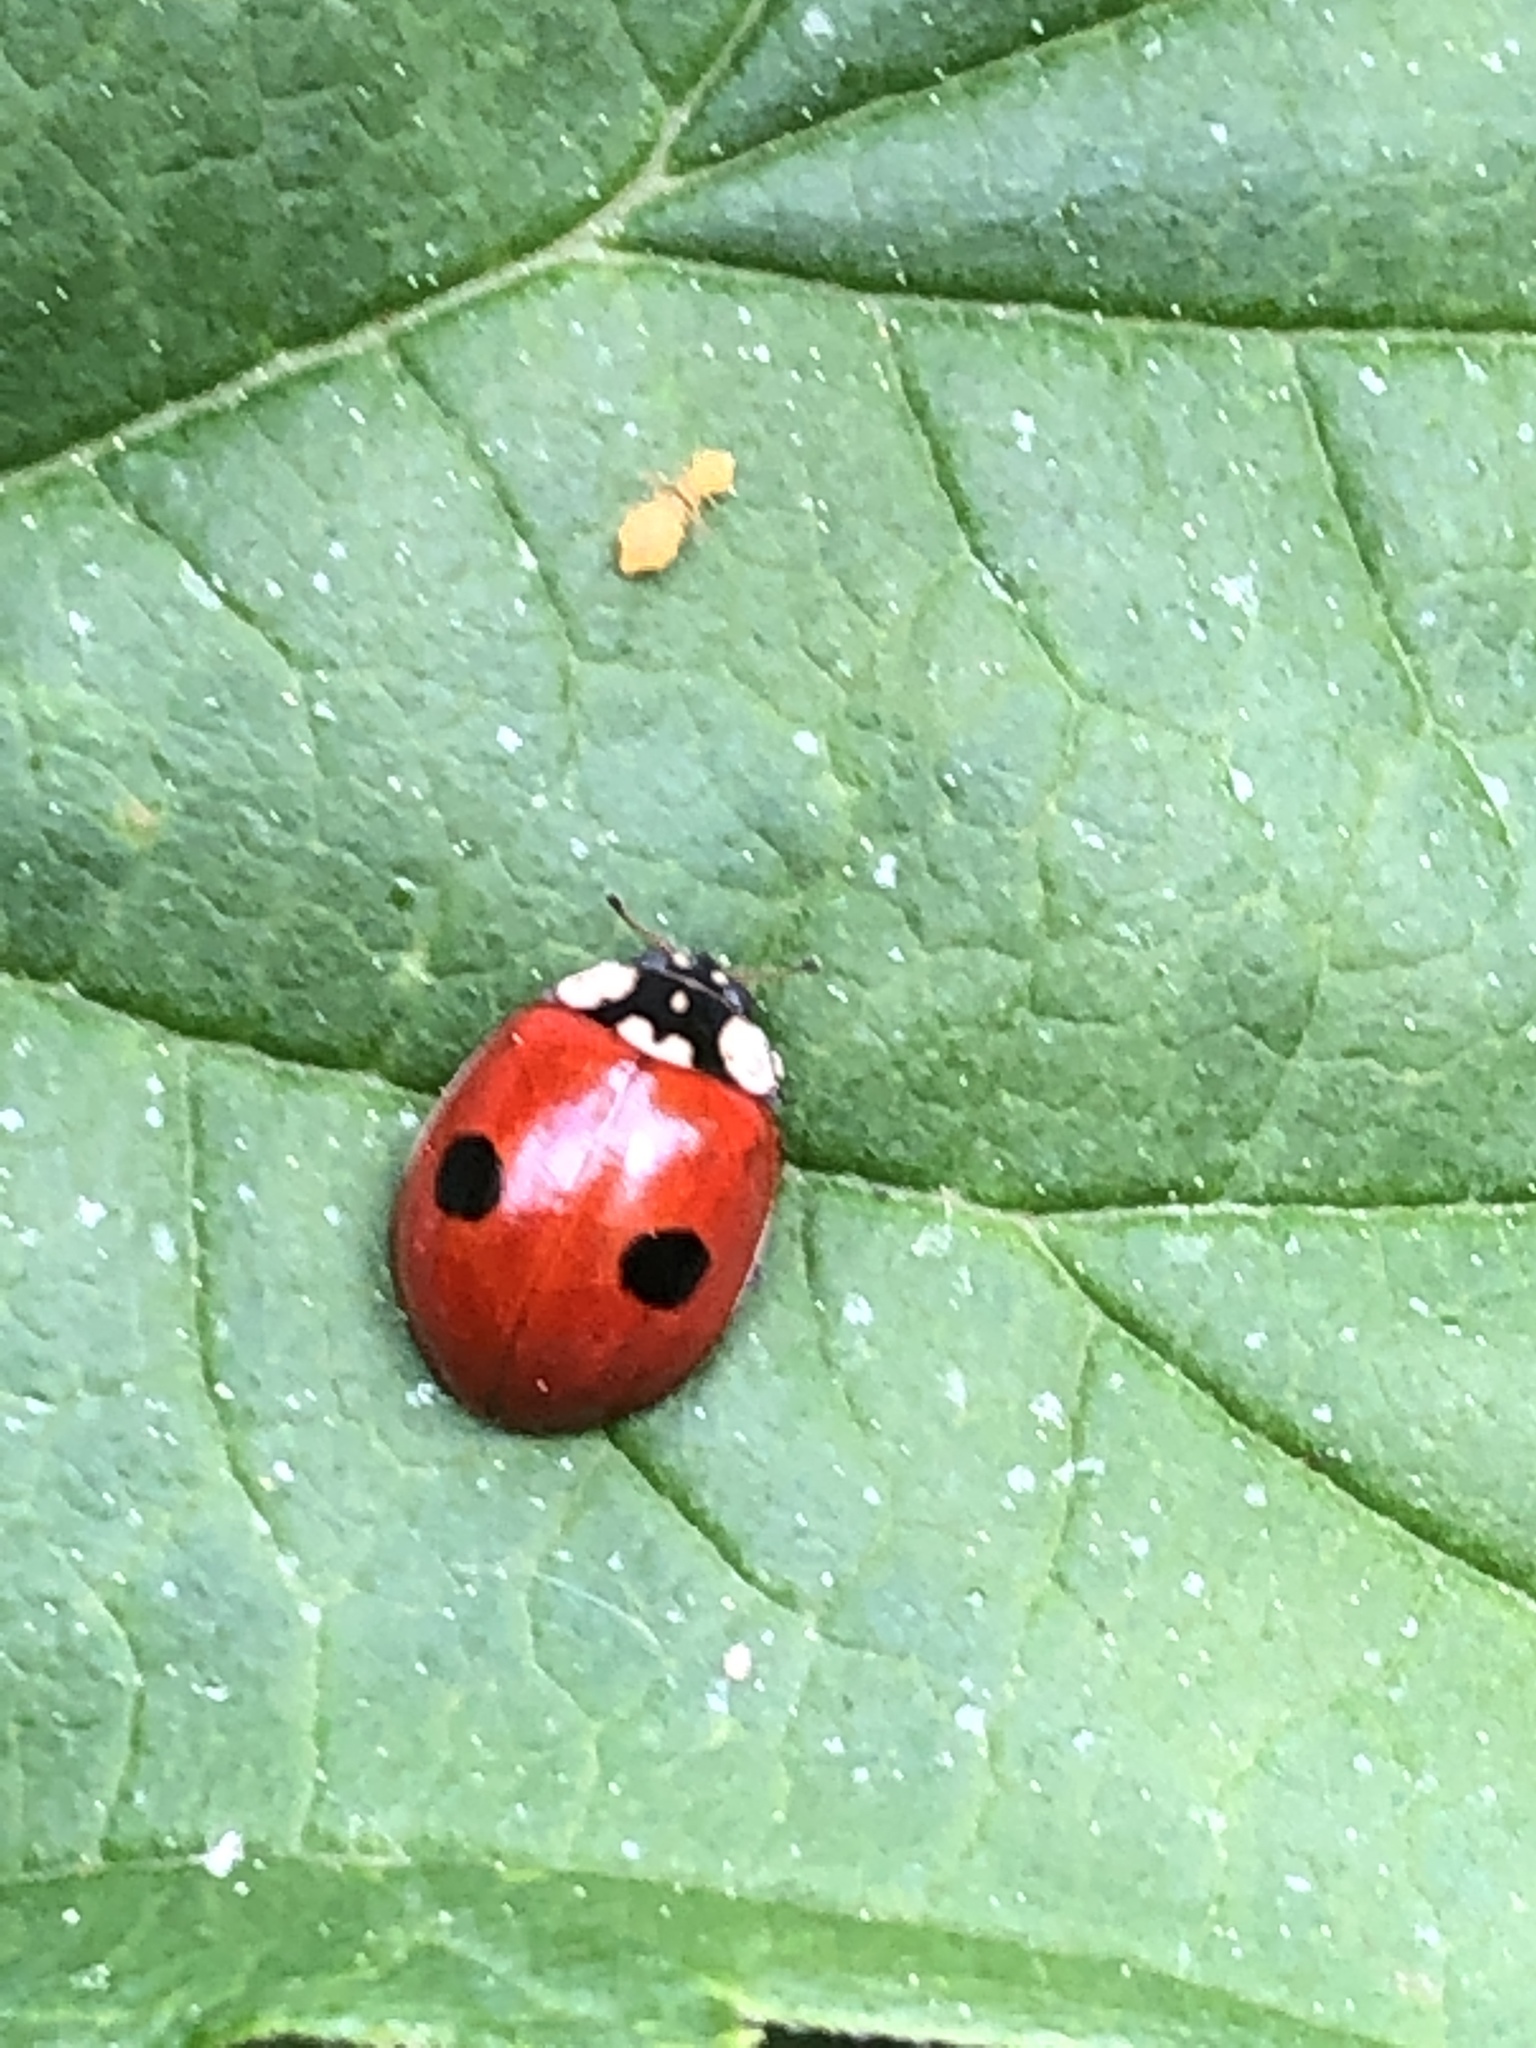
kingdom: Animalia
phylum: Arthropoda
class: Insecta
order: Coleoptera
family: Coccinellidae
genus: Adalia
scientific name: Adalia bipunctata
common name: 2-spot ladybird
